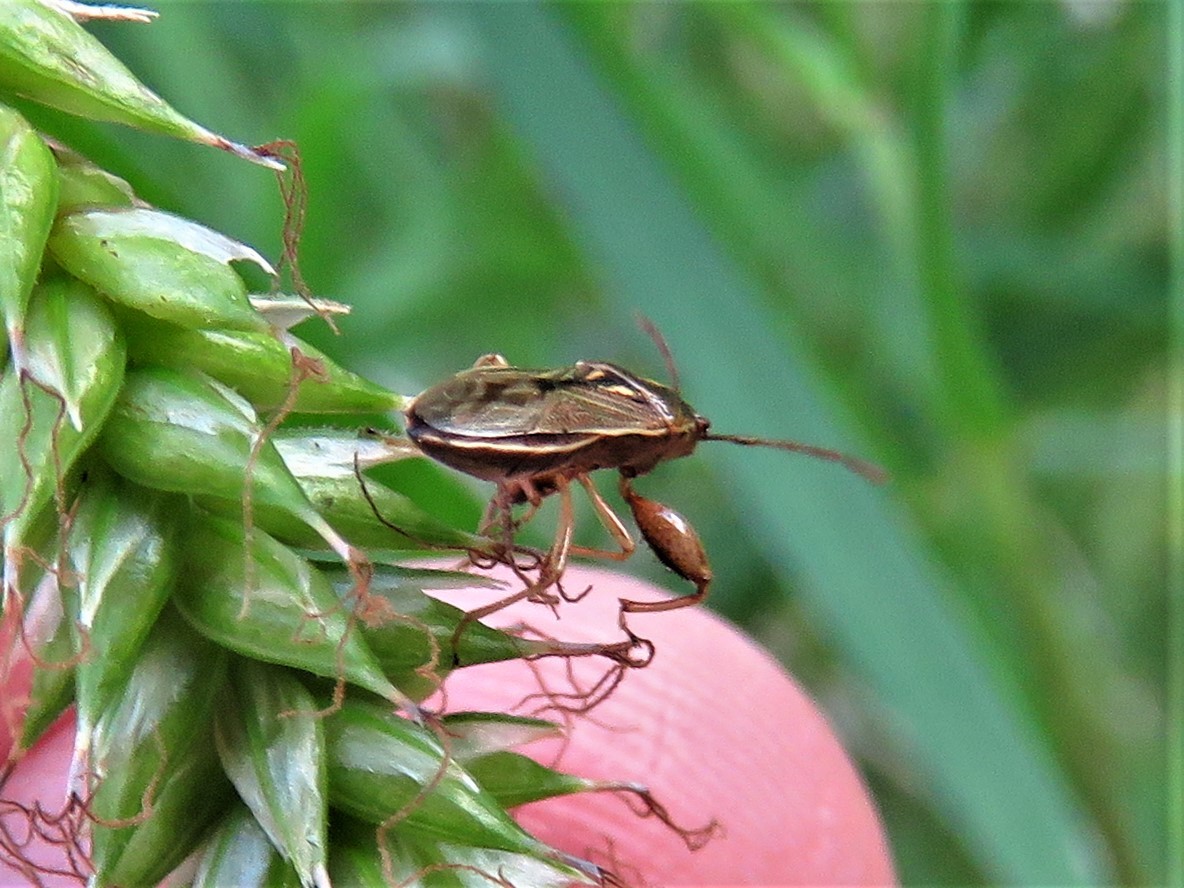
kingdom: Animalia
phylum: Arthropoda
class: Insecta
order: Hemiptera
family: Pachygronthidae
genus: Oedancala
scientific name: Oedancala dorsalis
